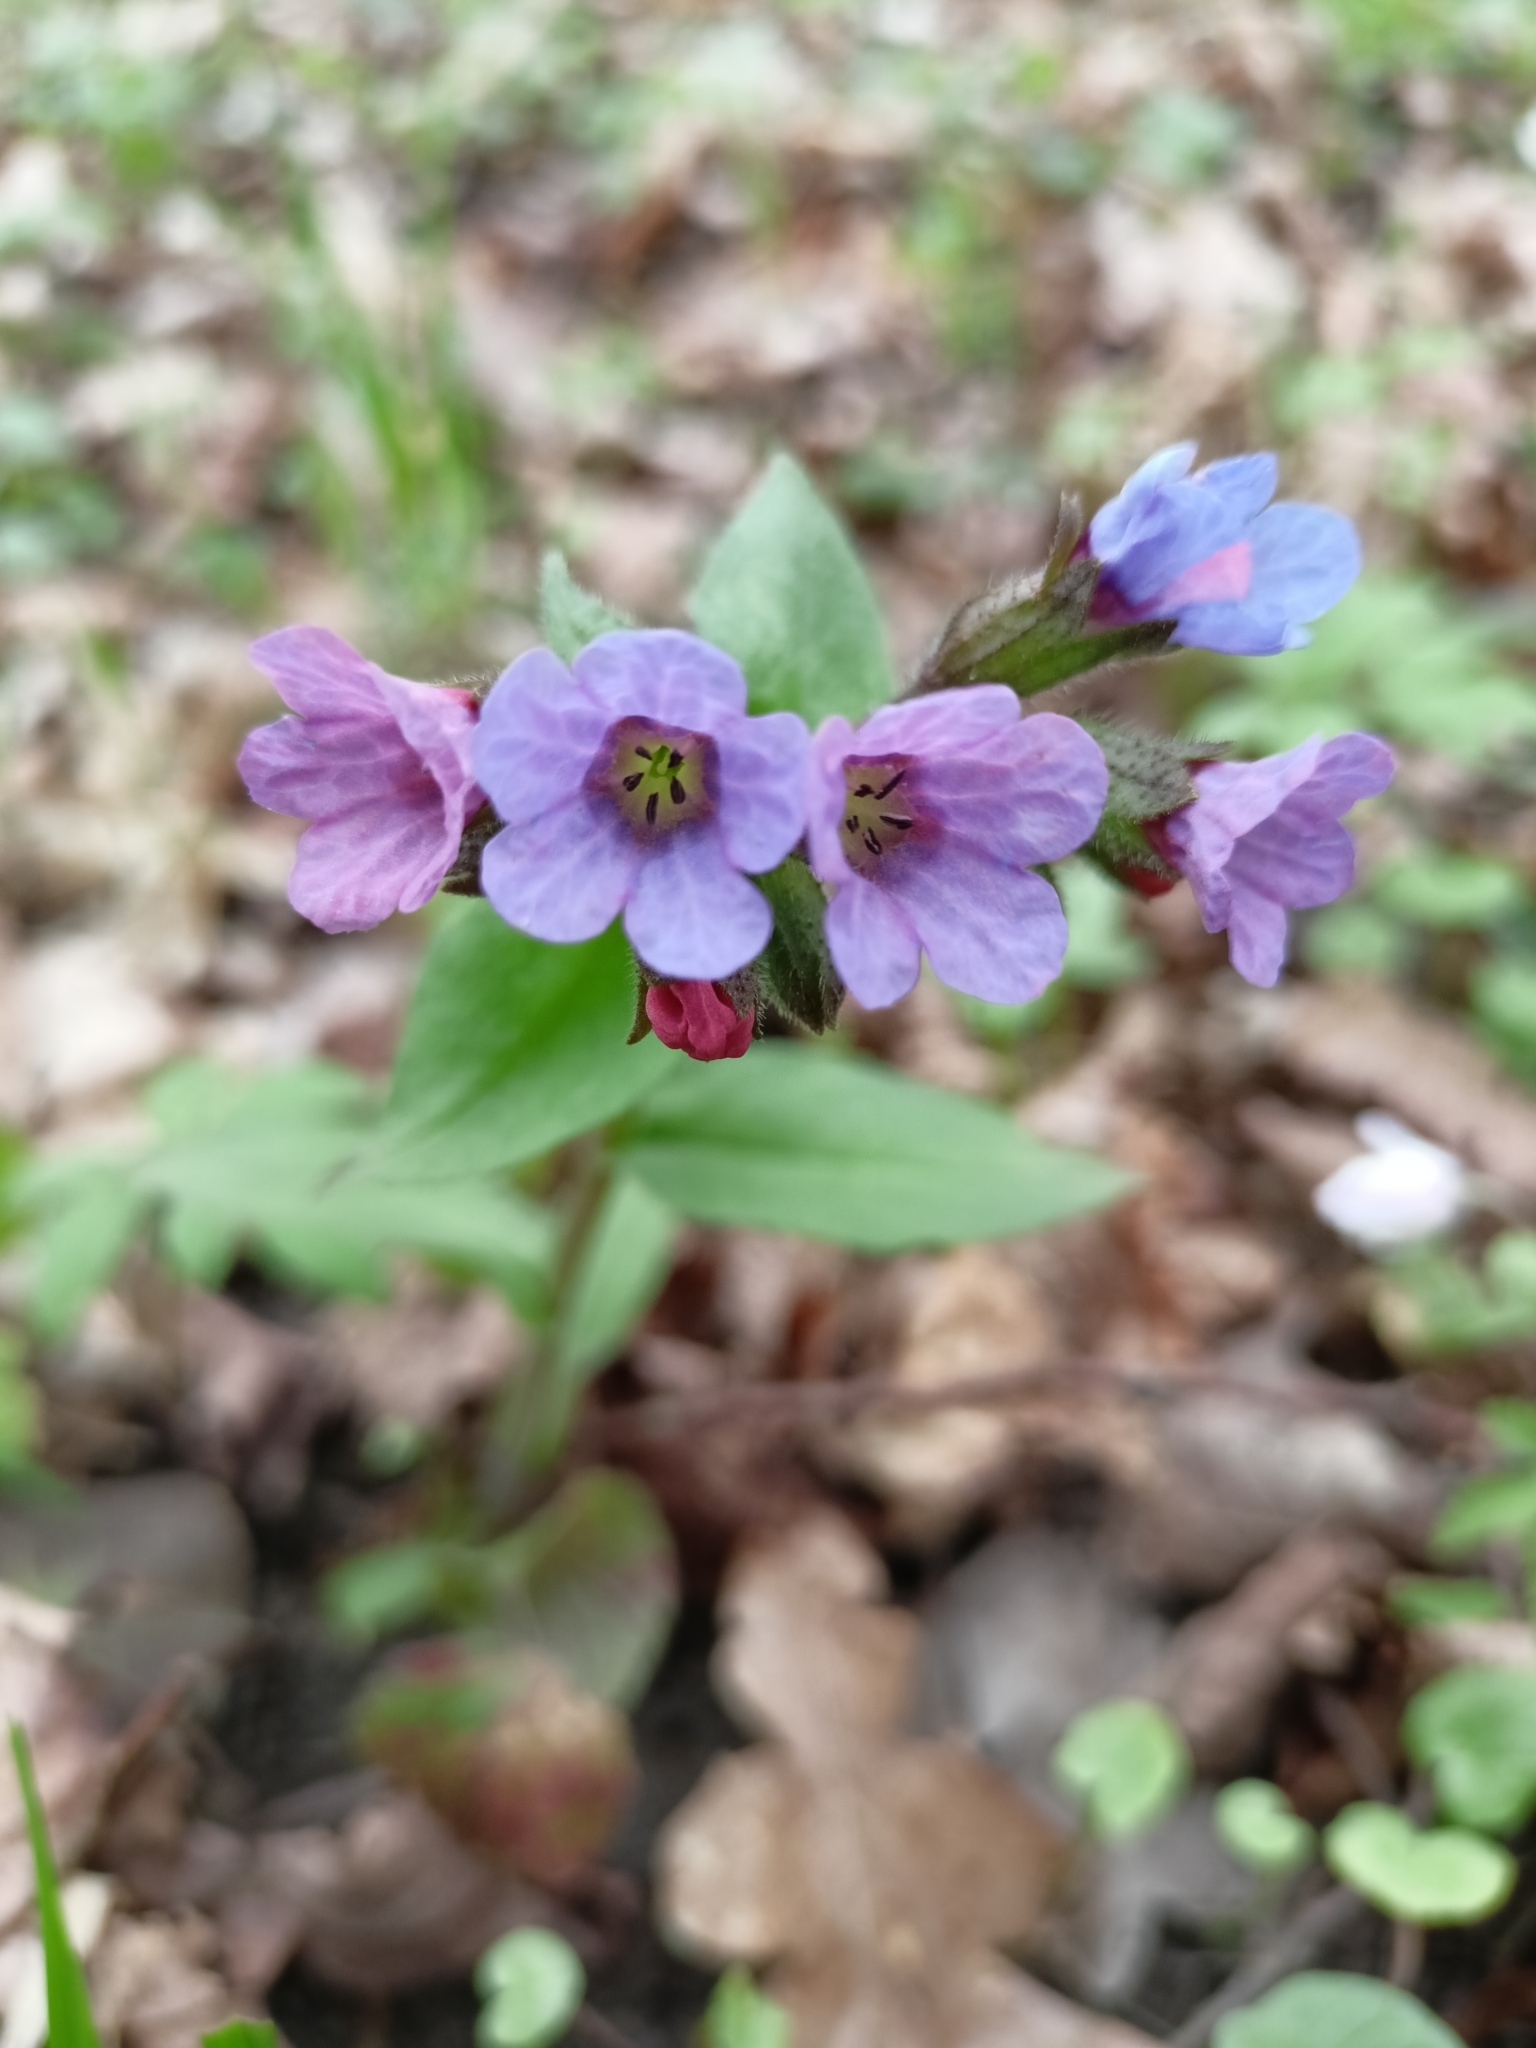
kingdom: Plantae
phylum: Tracheophyta
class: Magnoliopsida
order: Boraginales
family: Boraginaceae
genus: Pulmonaria
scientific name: Pulmonaria obscura
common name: Suffolk lungwort
